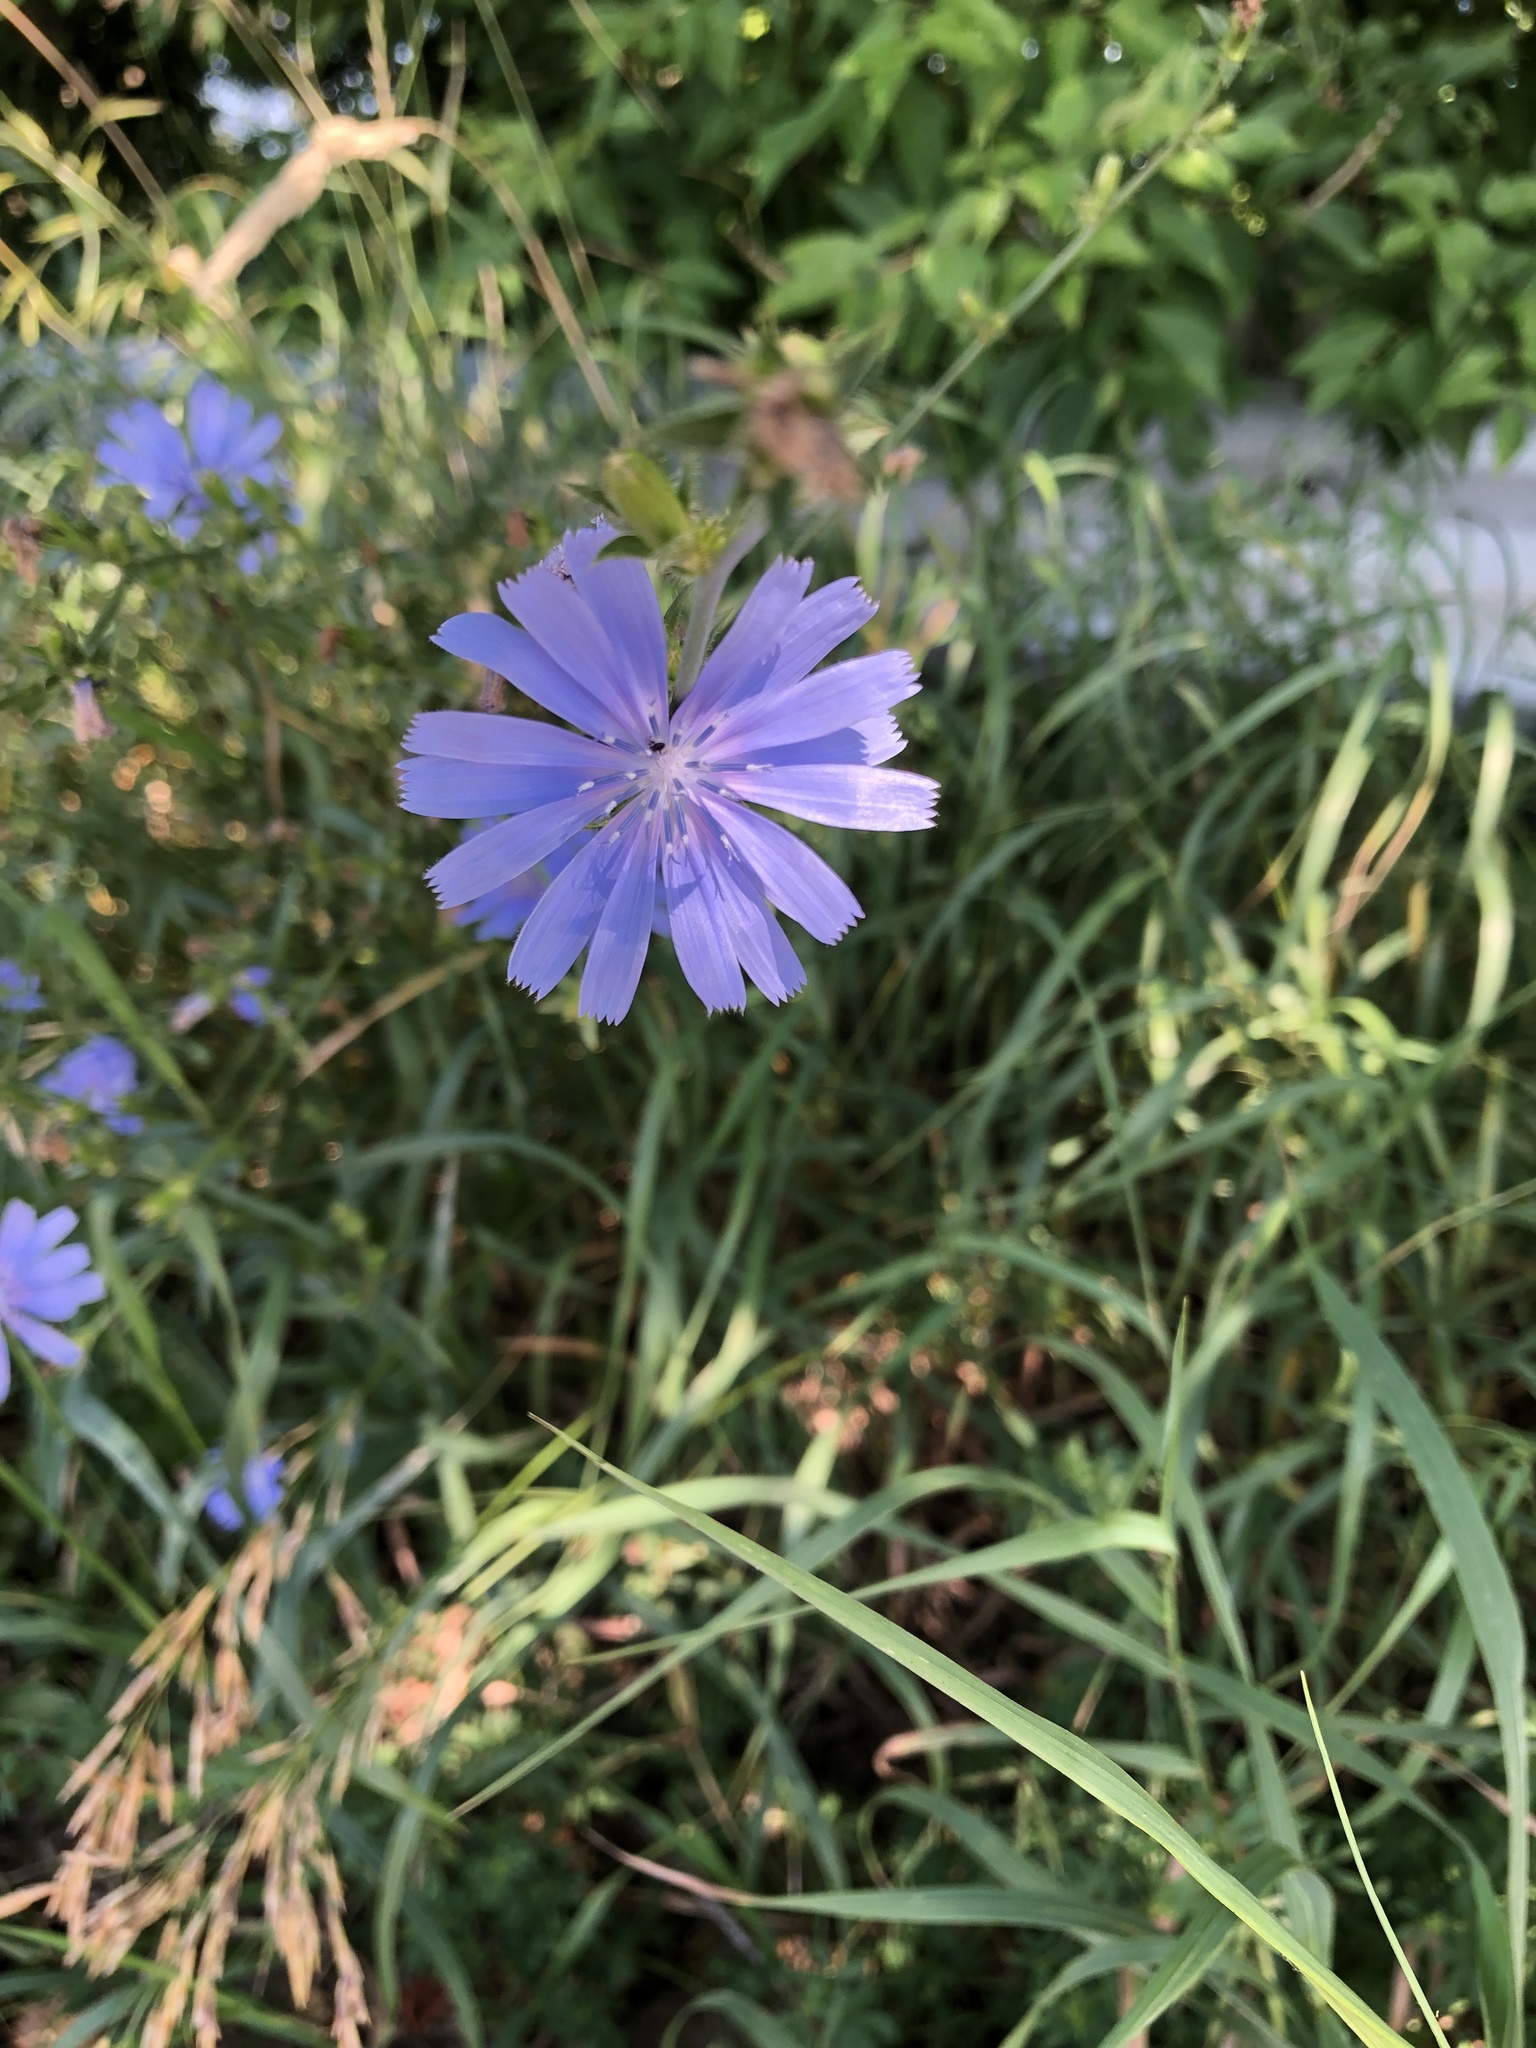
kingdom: Plantae
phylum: Tracheophyta
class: Magnoliopsida
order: Asterales
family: Asteraceae
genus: Cichorium
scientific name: Cichorium intybus
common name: Chicory
